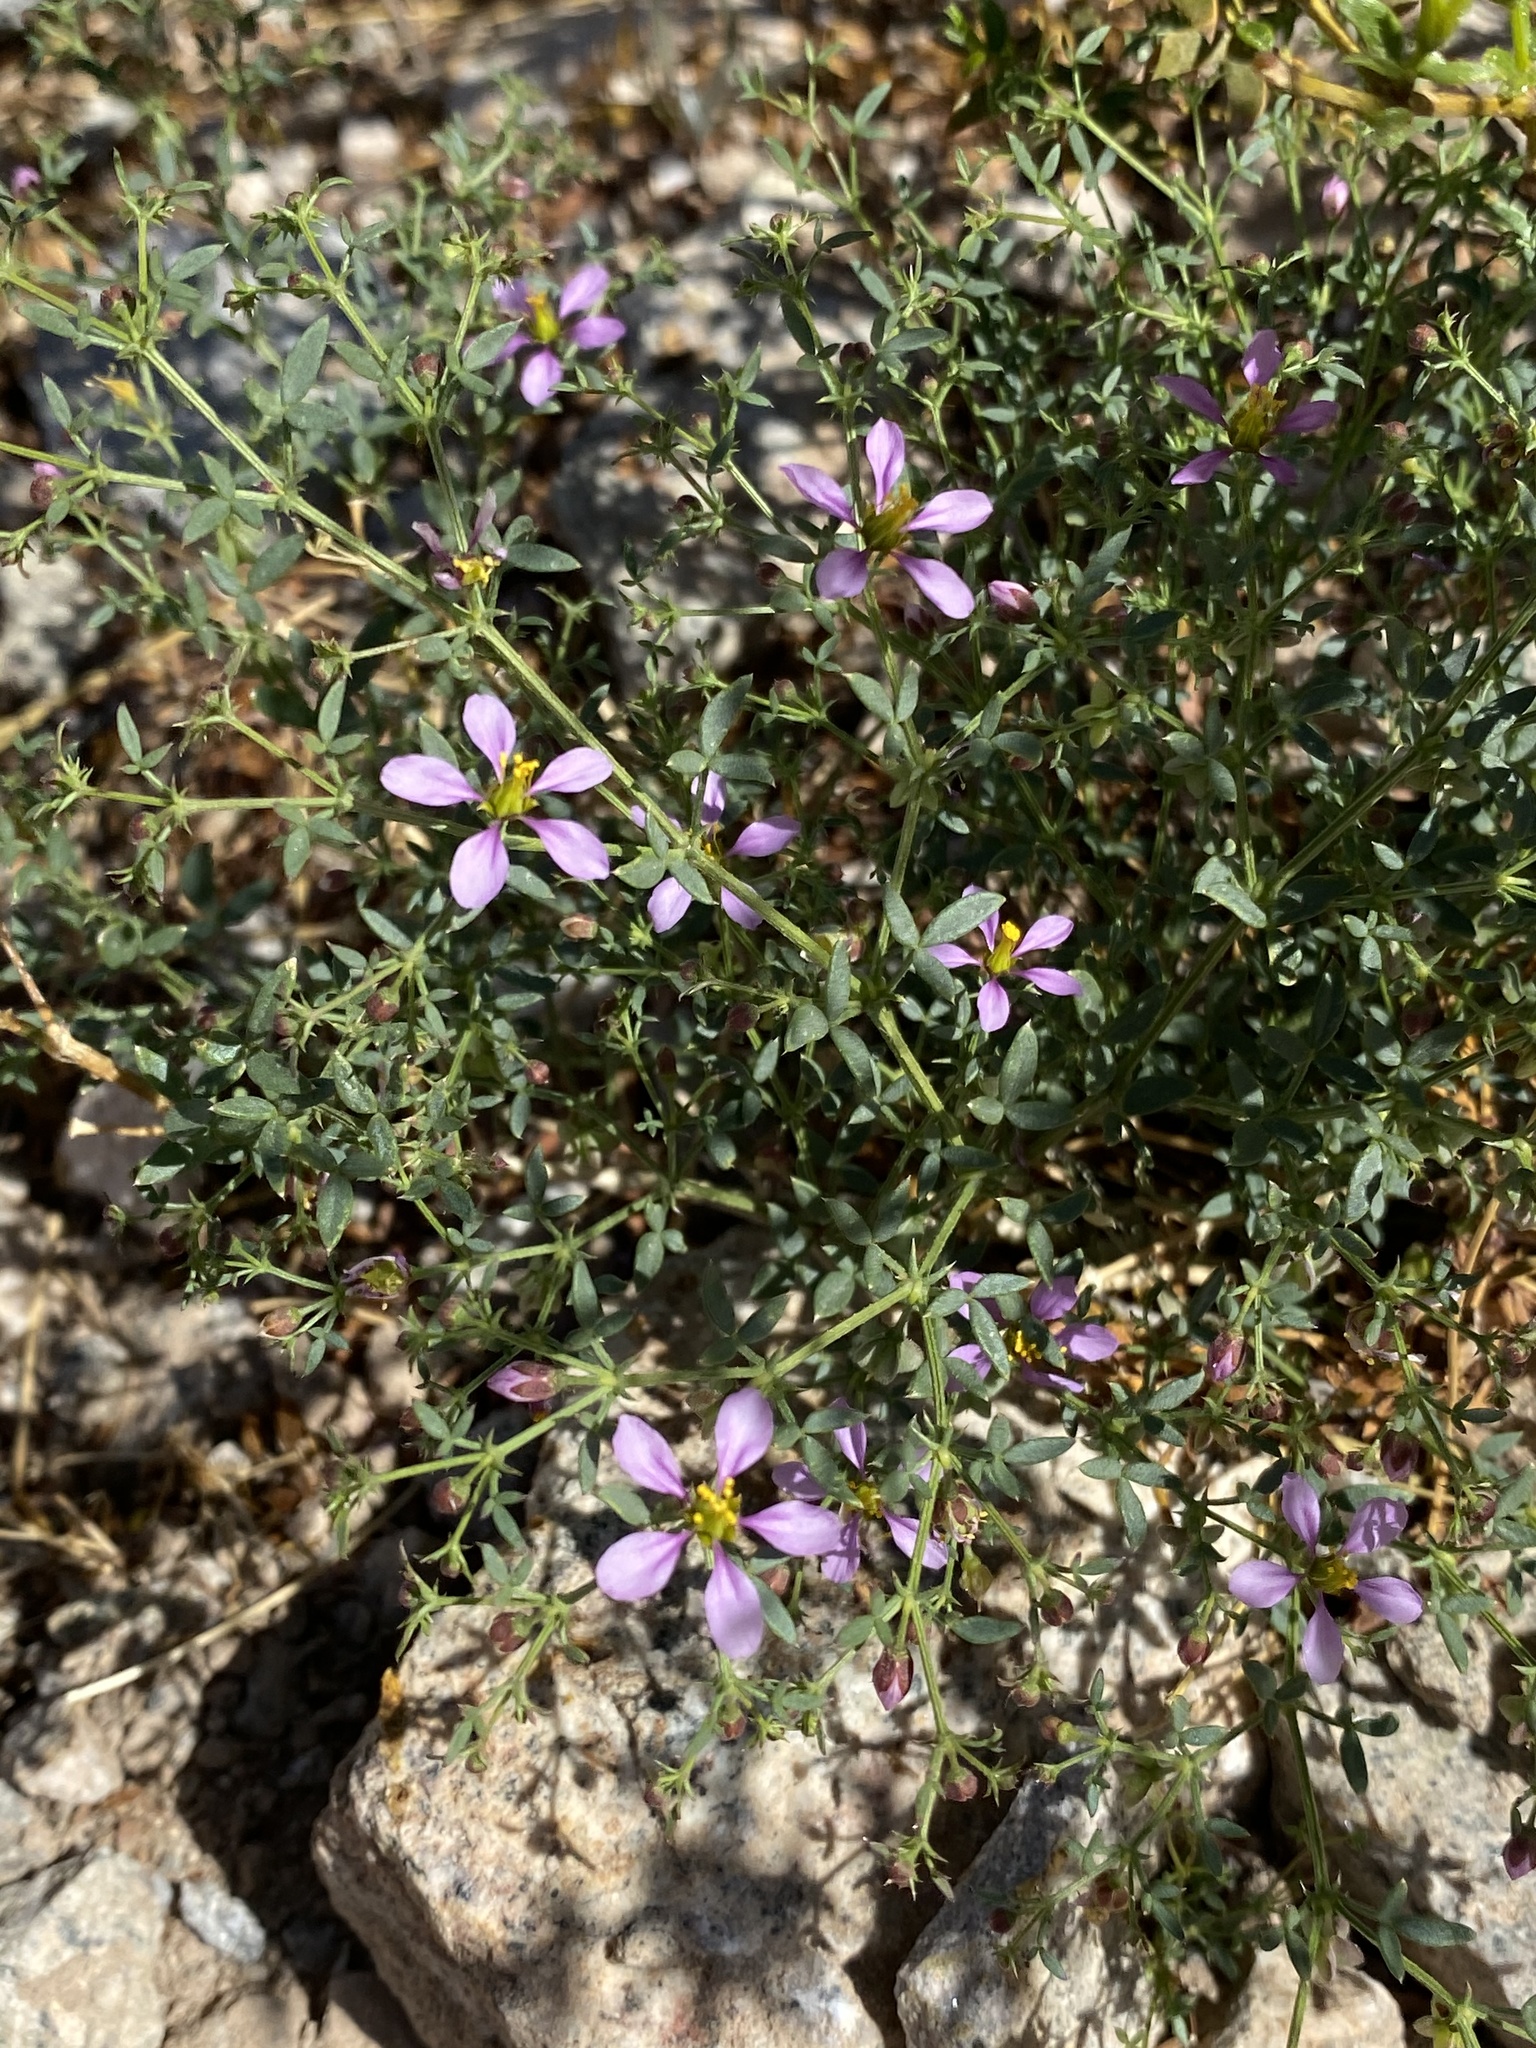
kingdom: Plantae
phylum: Tracheophyta
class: Magnoliopsida
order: Zygophyllales
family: Zygophyllaceae
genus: Fagonia
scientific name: Fagonia laevis
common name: California fagonbush
